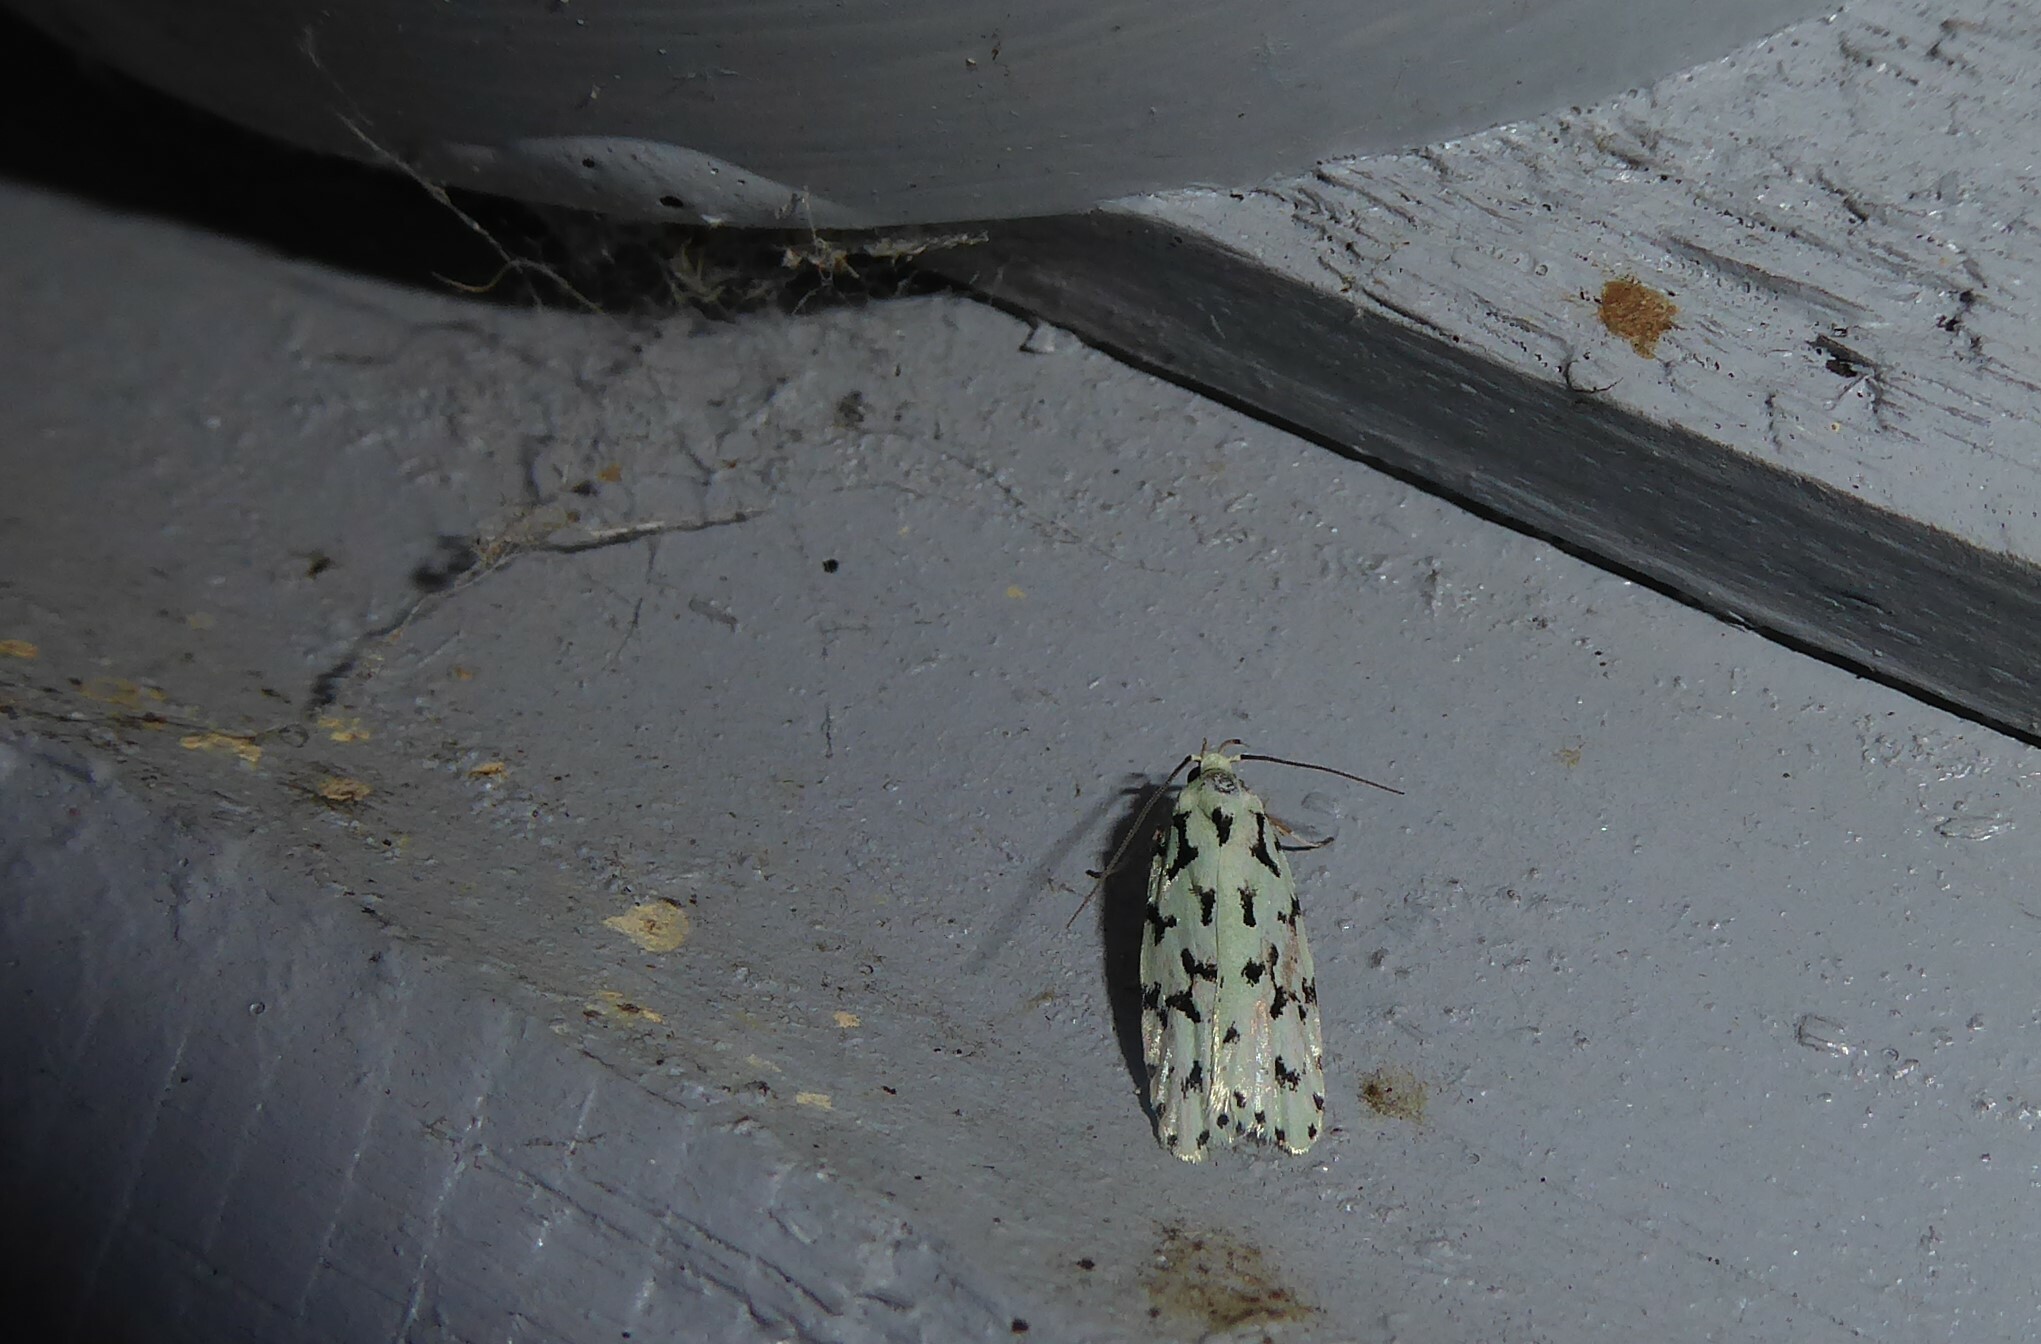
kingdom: Animalia
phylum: Arthropoda
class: Insecta
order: Lepidoptera
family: Oecophoridae
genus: Izatha
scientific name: Izatha huttoni
